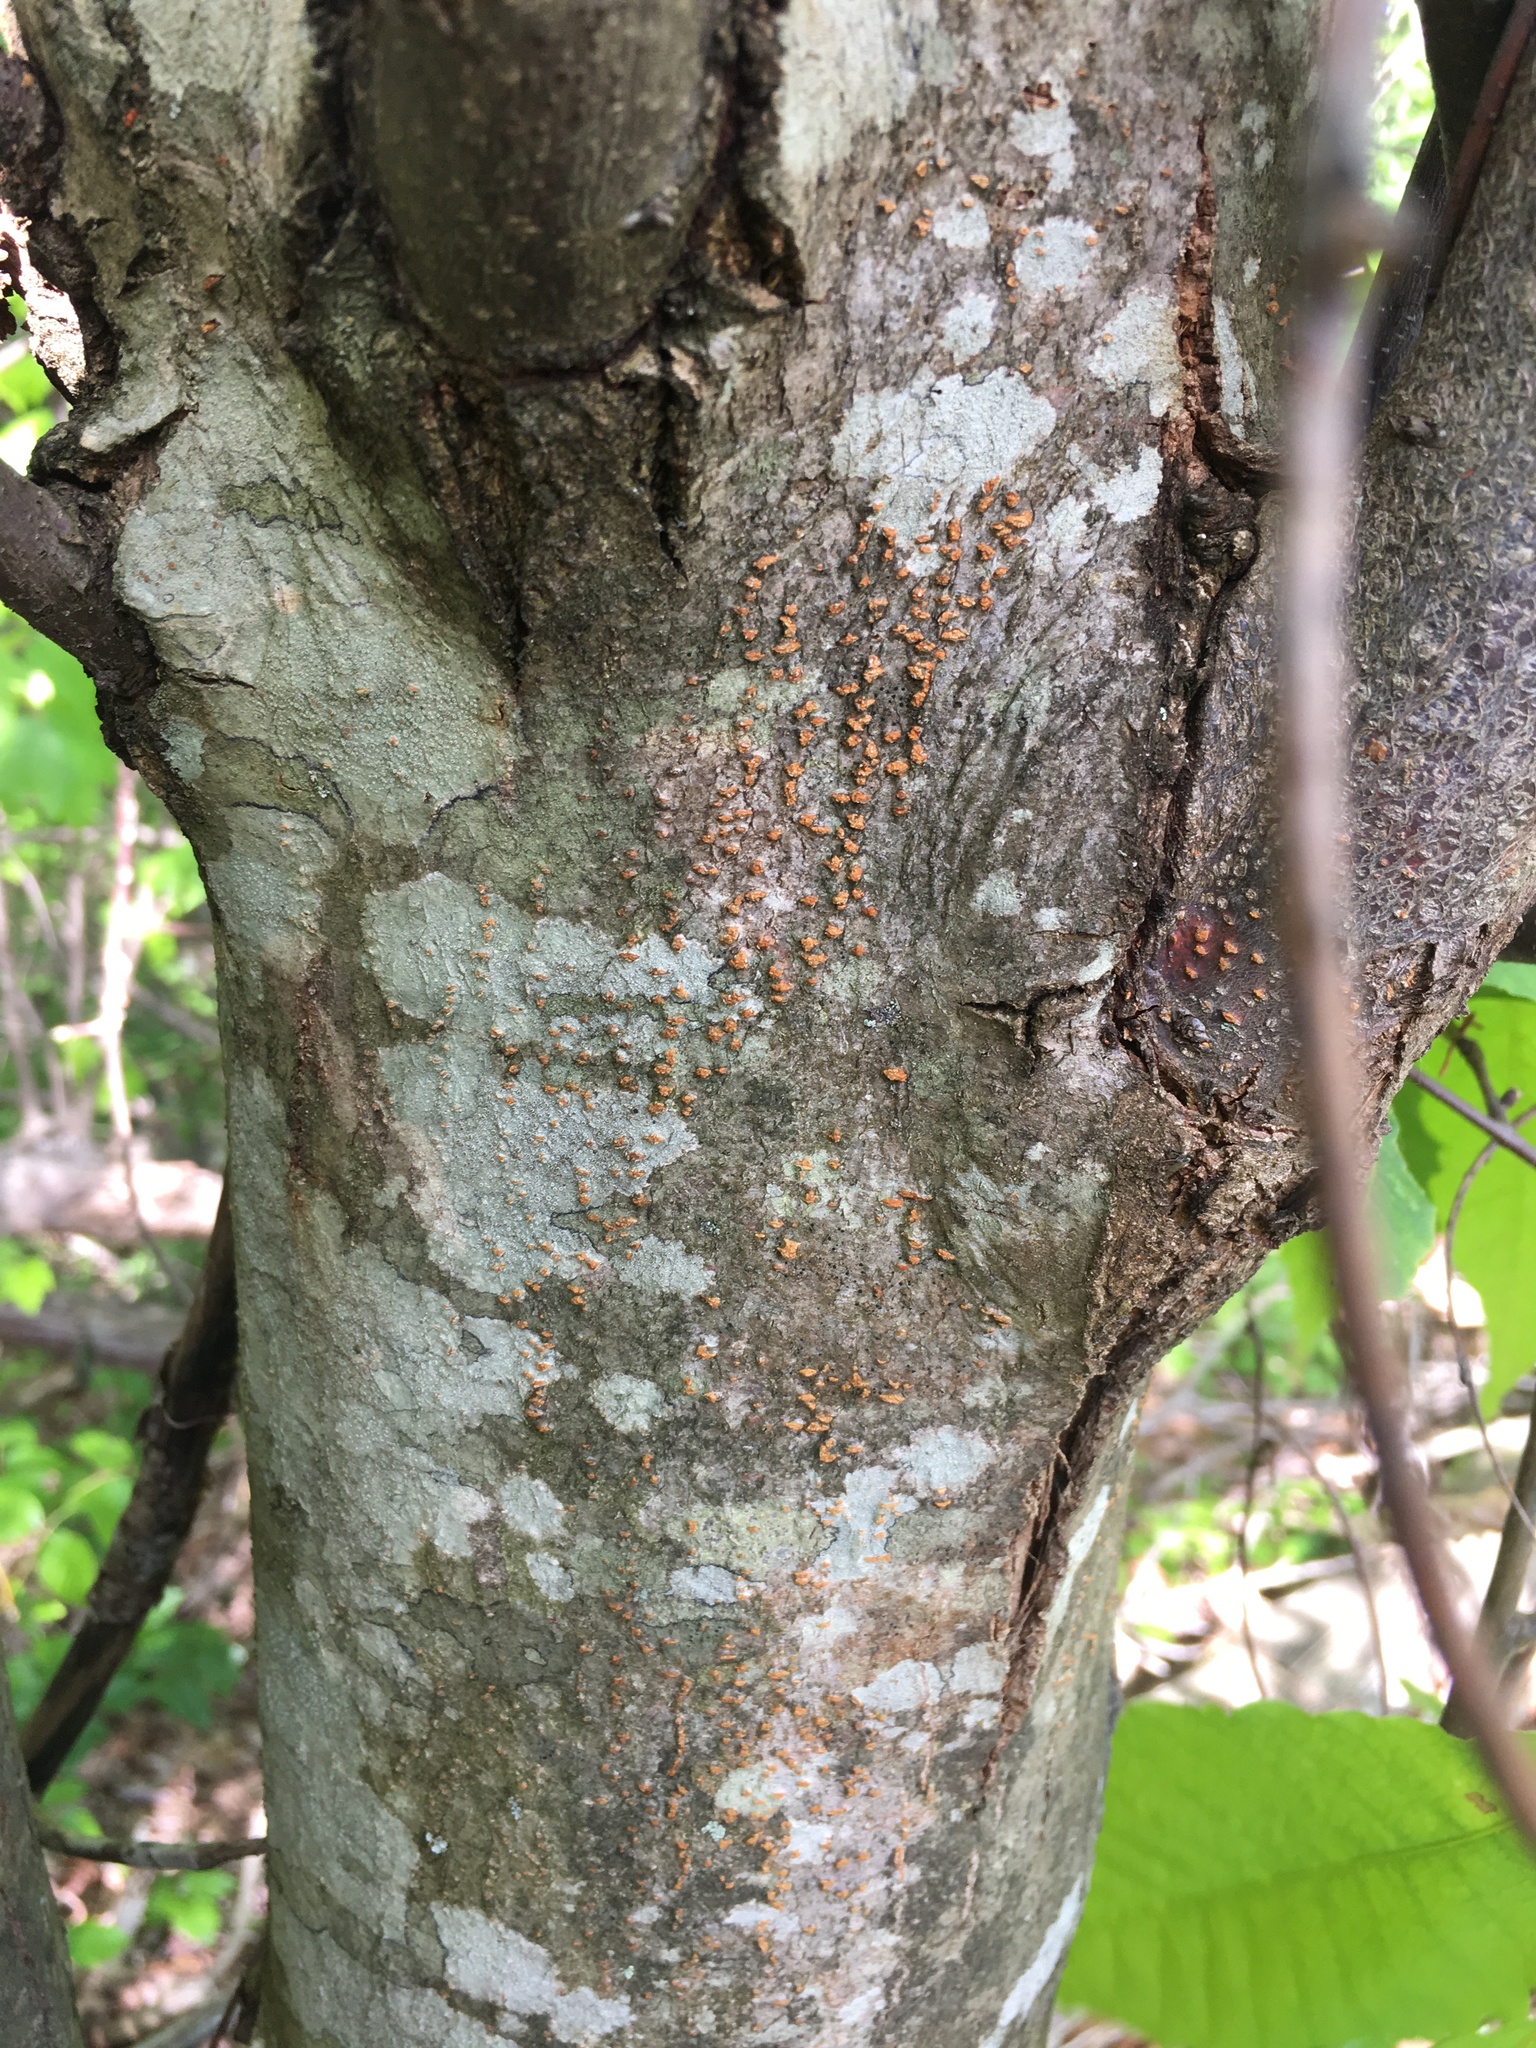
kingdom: Plantae
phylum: Tracheophyta
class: Magnoliopsida
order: Fagales
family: Fagaceae
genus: Castanea
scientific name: Castanea dentata
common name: American chestnut
